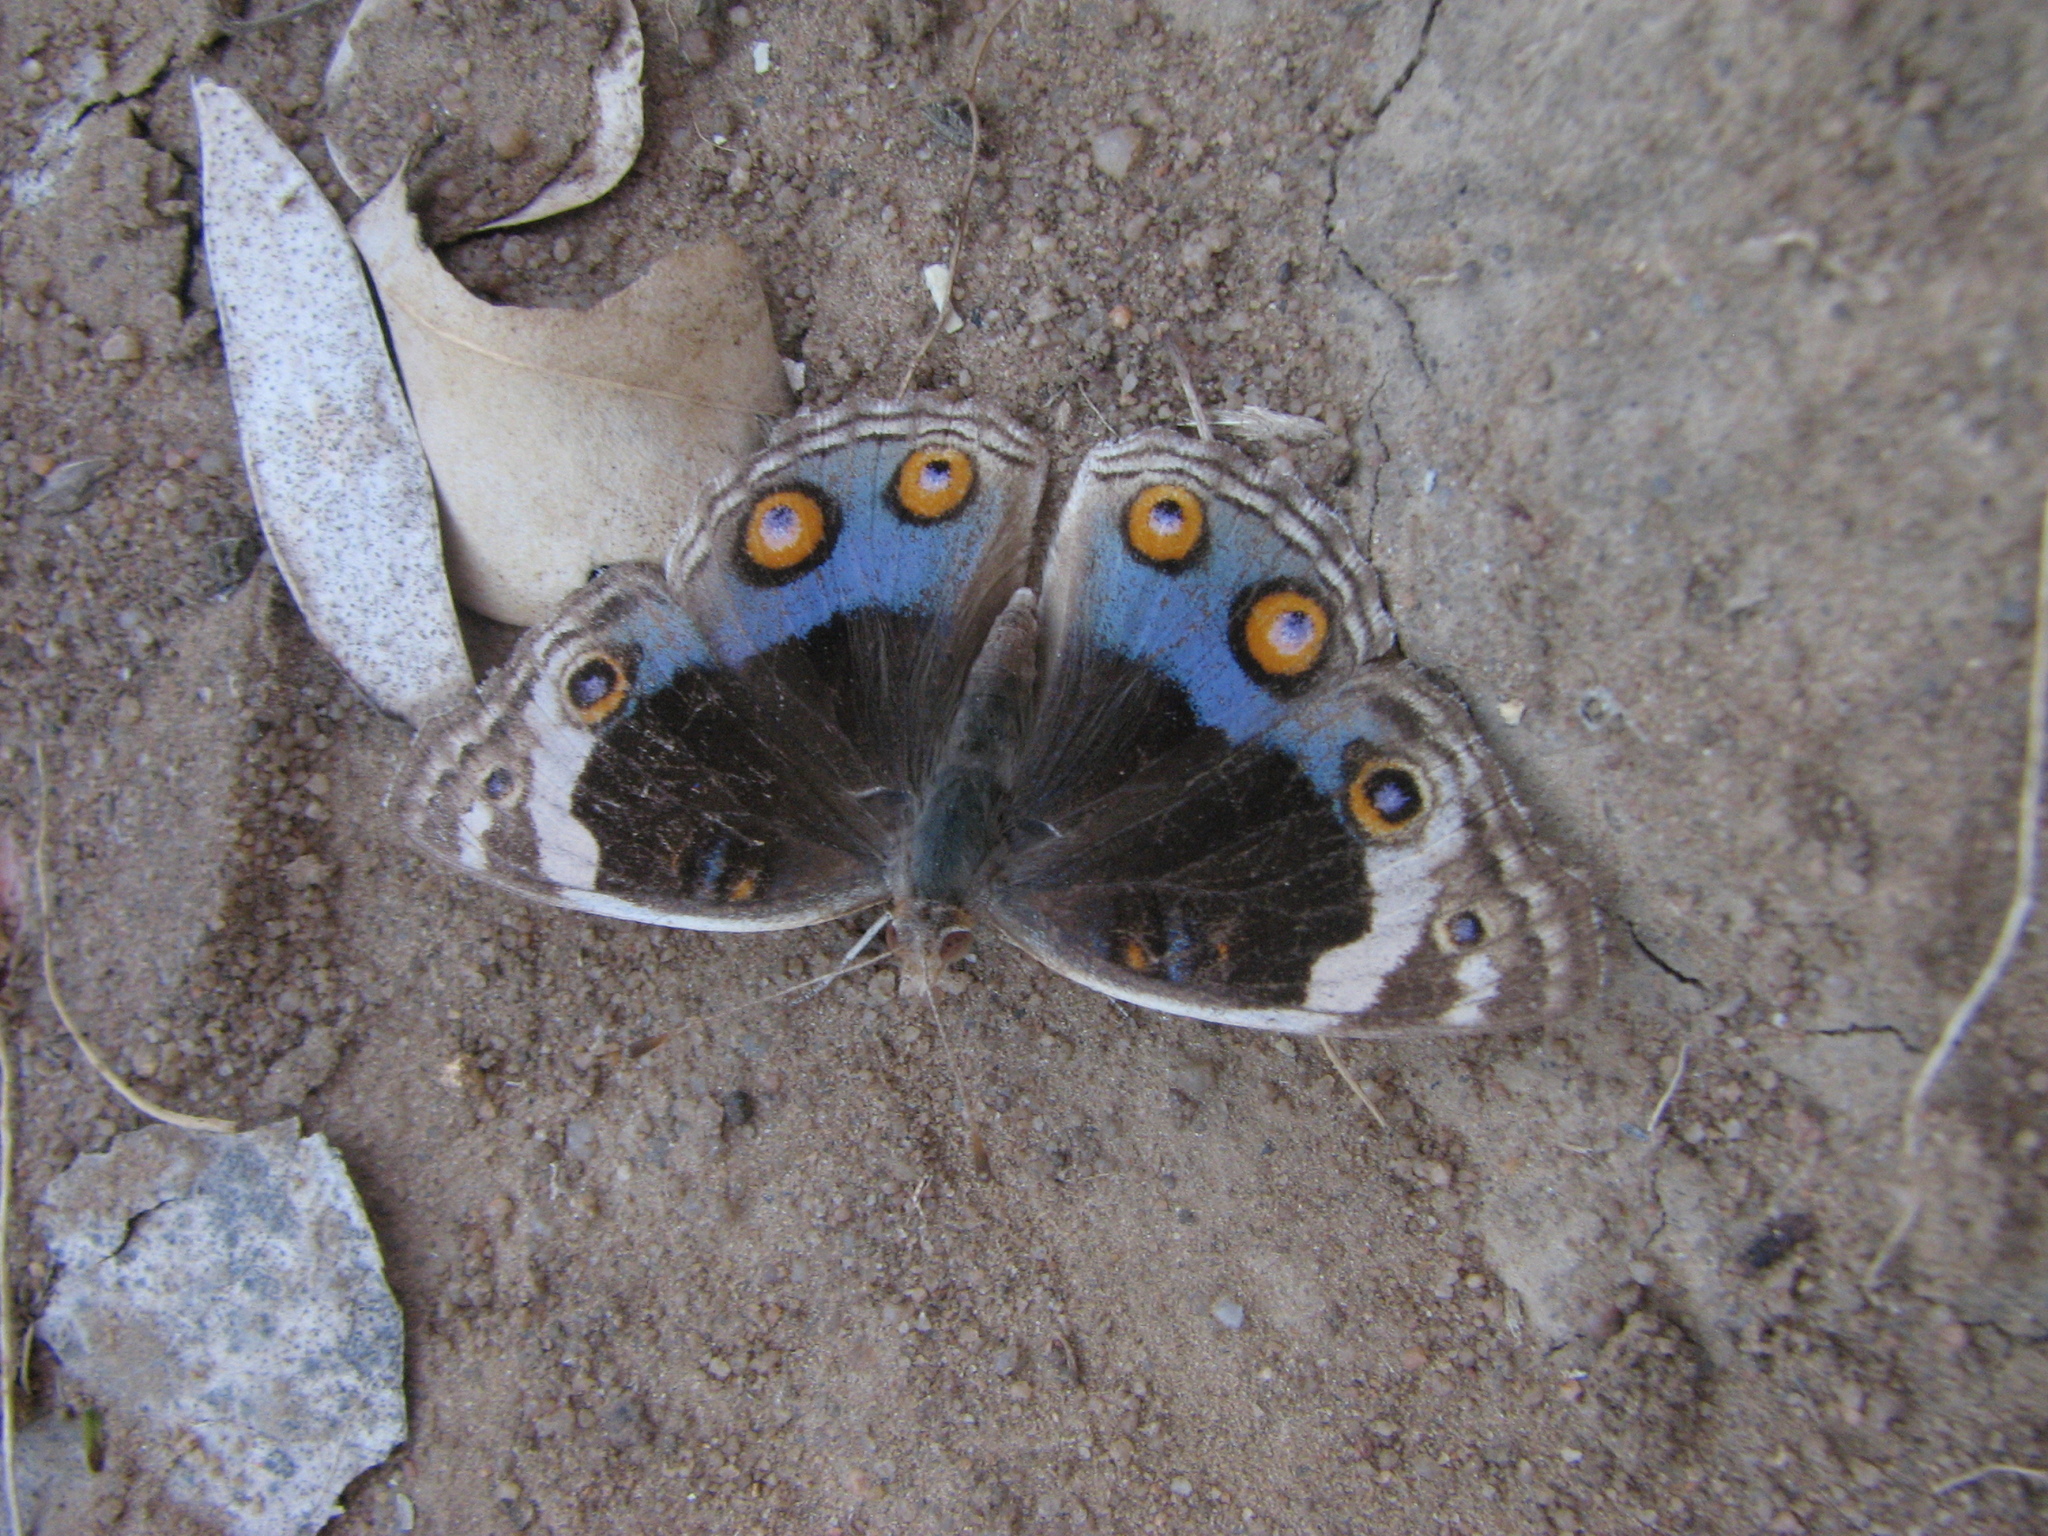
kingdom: Animalia
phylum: Arthropoda
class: Insecta
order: Lepidoptera
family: Nymphalidae
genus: Junonia
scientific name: Junonia orithya
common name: Blue pansy
